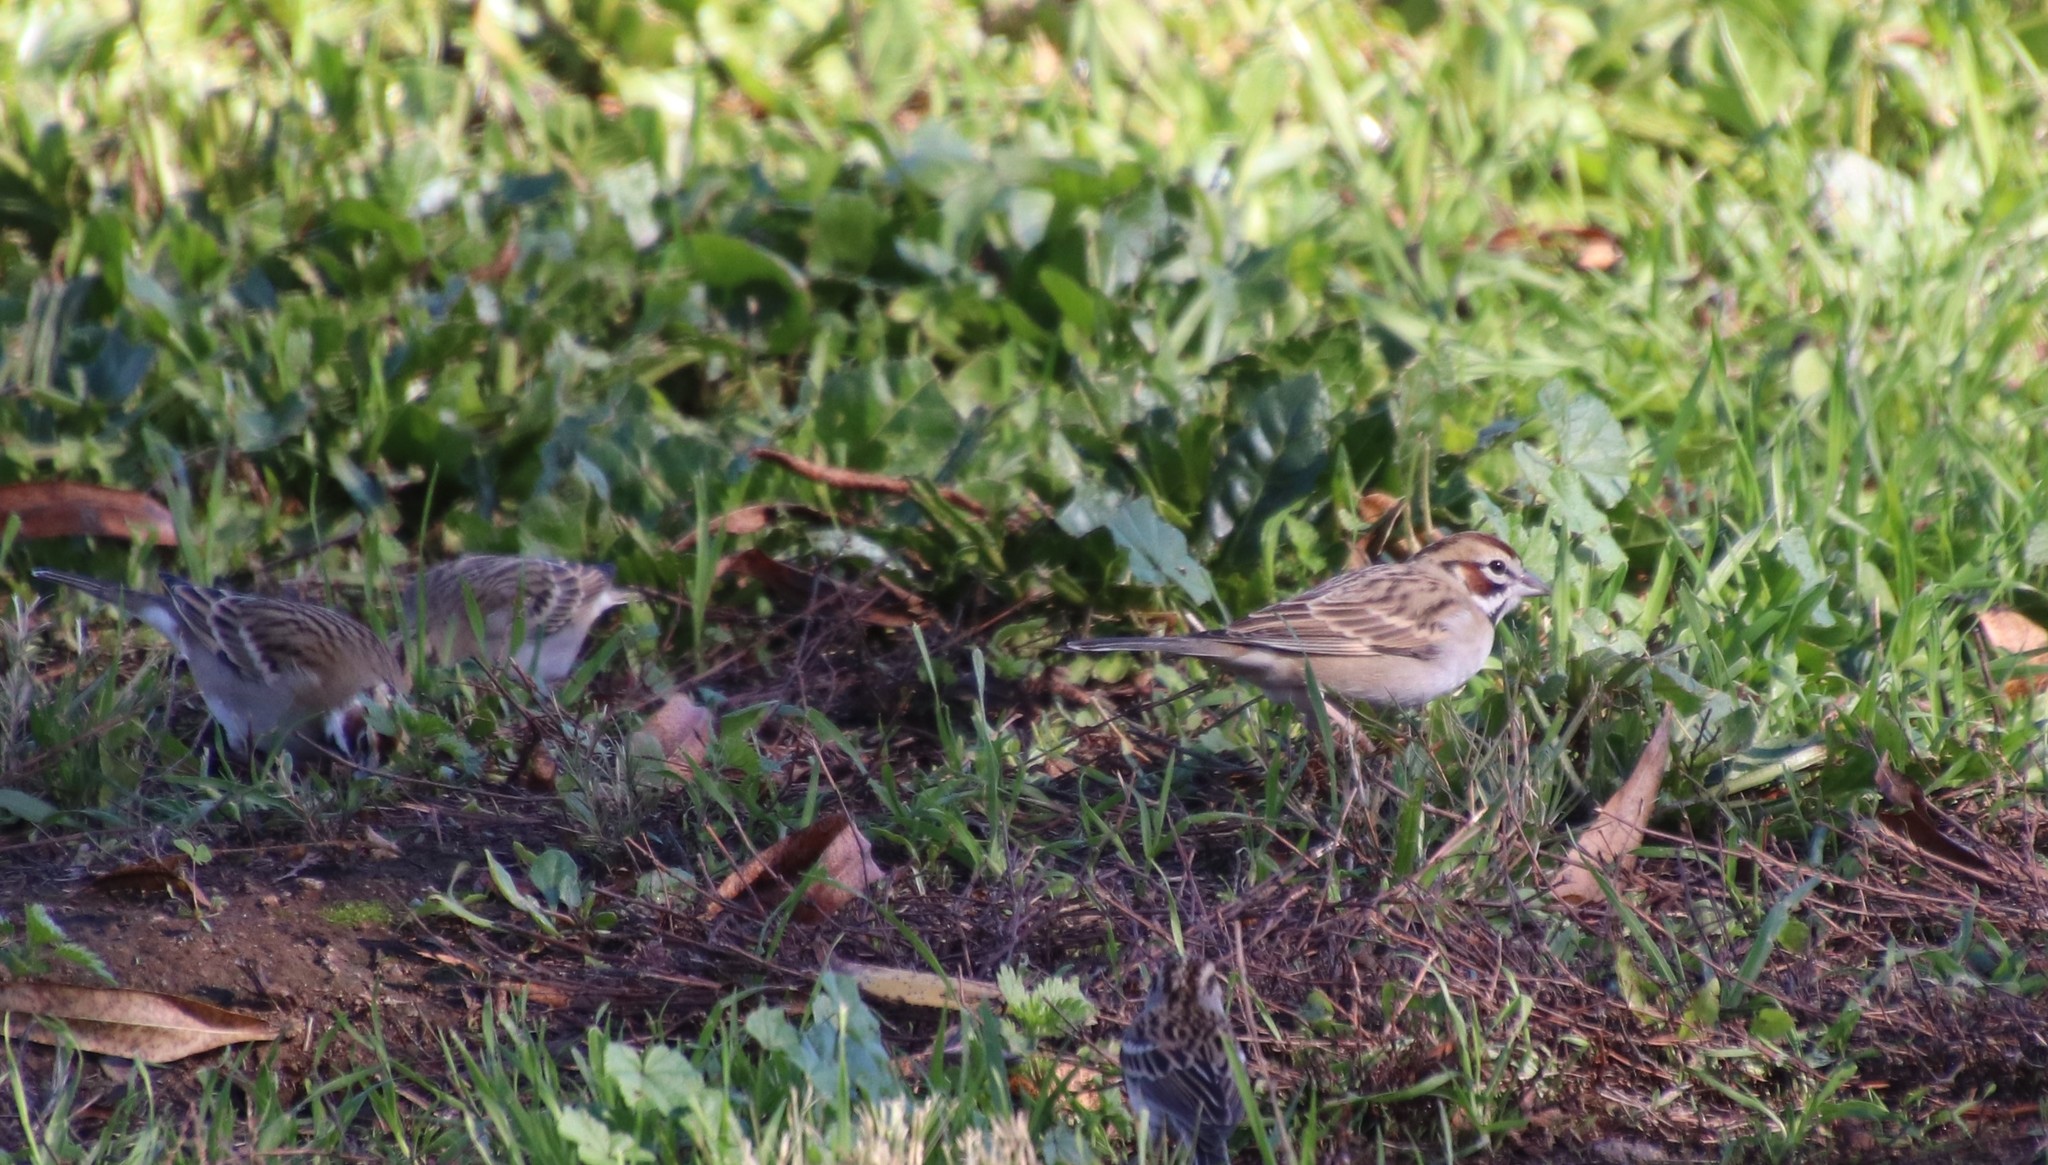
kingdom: Animalia
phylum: Chordata
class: Aves
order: Passeriformes
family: Passerellidae
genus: Chondestes
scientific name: Chondestes grammacus
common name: Lark sparrow
